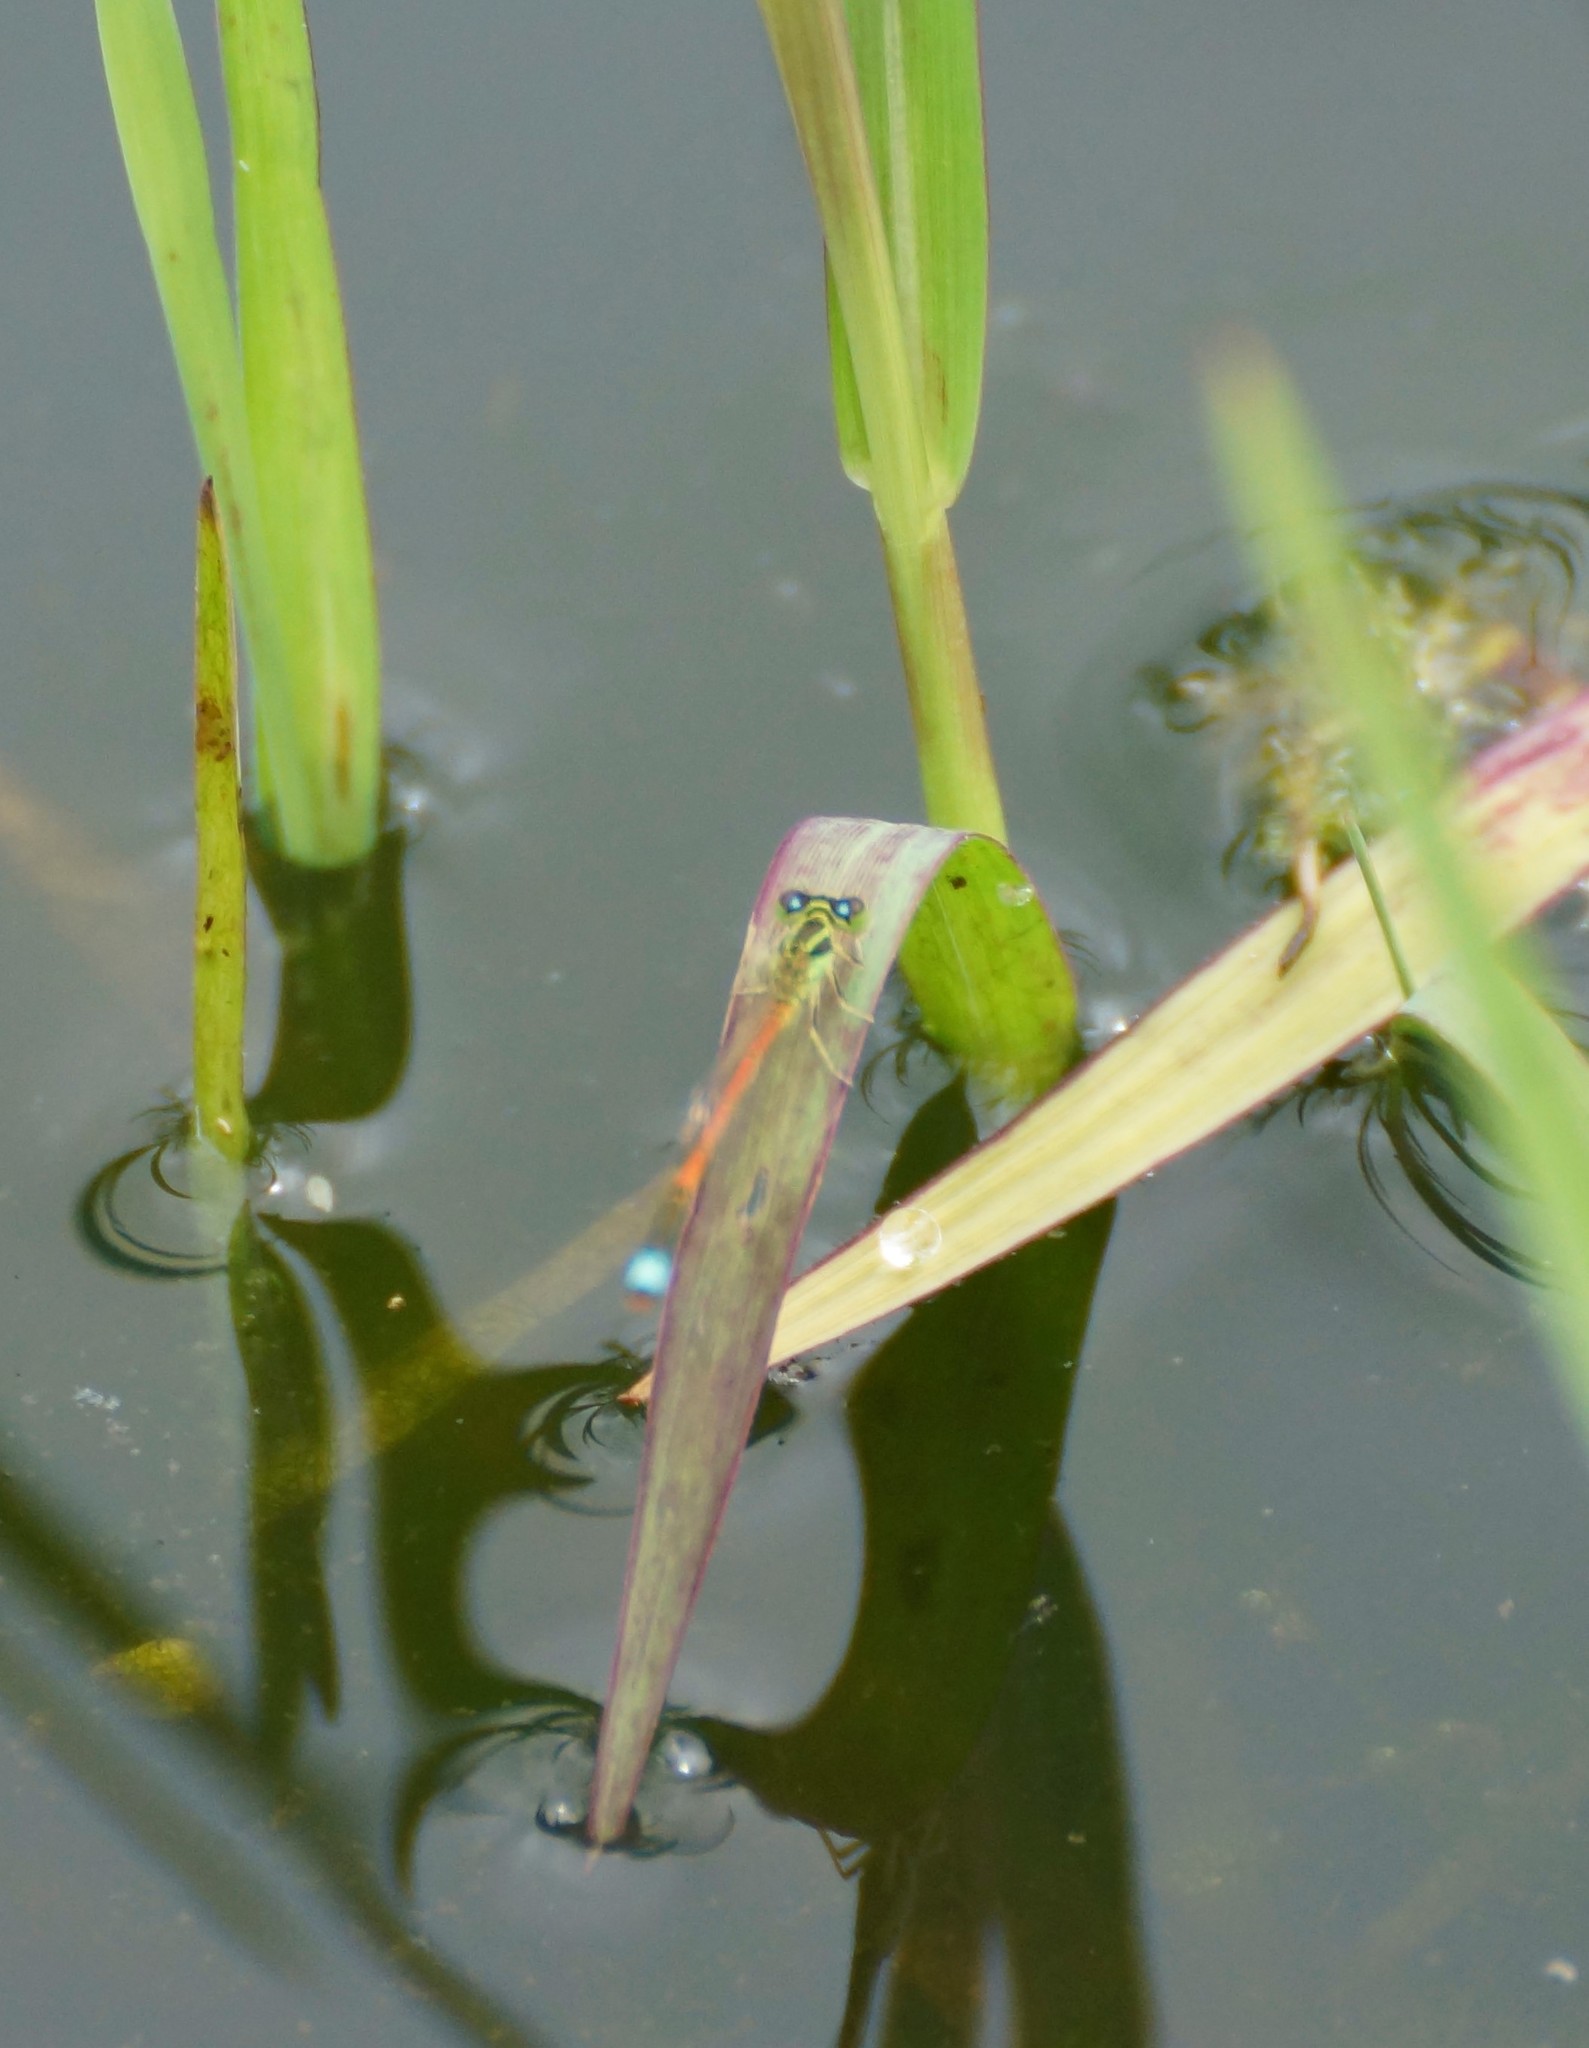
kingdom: Animalia
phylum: Arthropoda
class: Insecta
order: Odonata
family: Coenagrionidae
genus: Ischnura
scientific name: Ischnura aurora
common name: Gossamer damselfly
